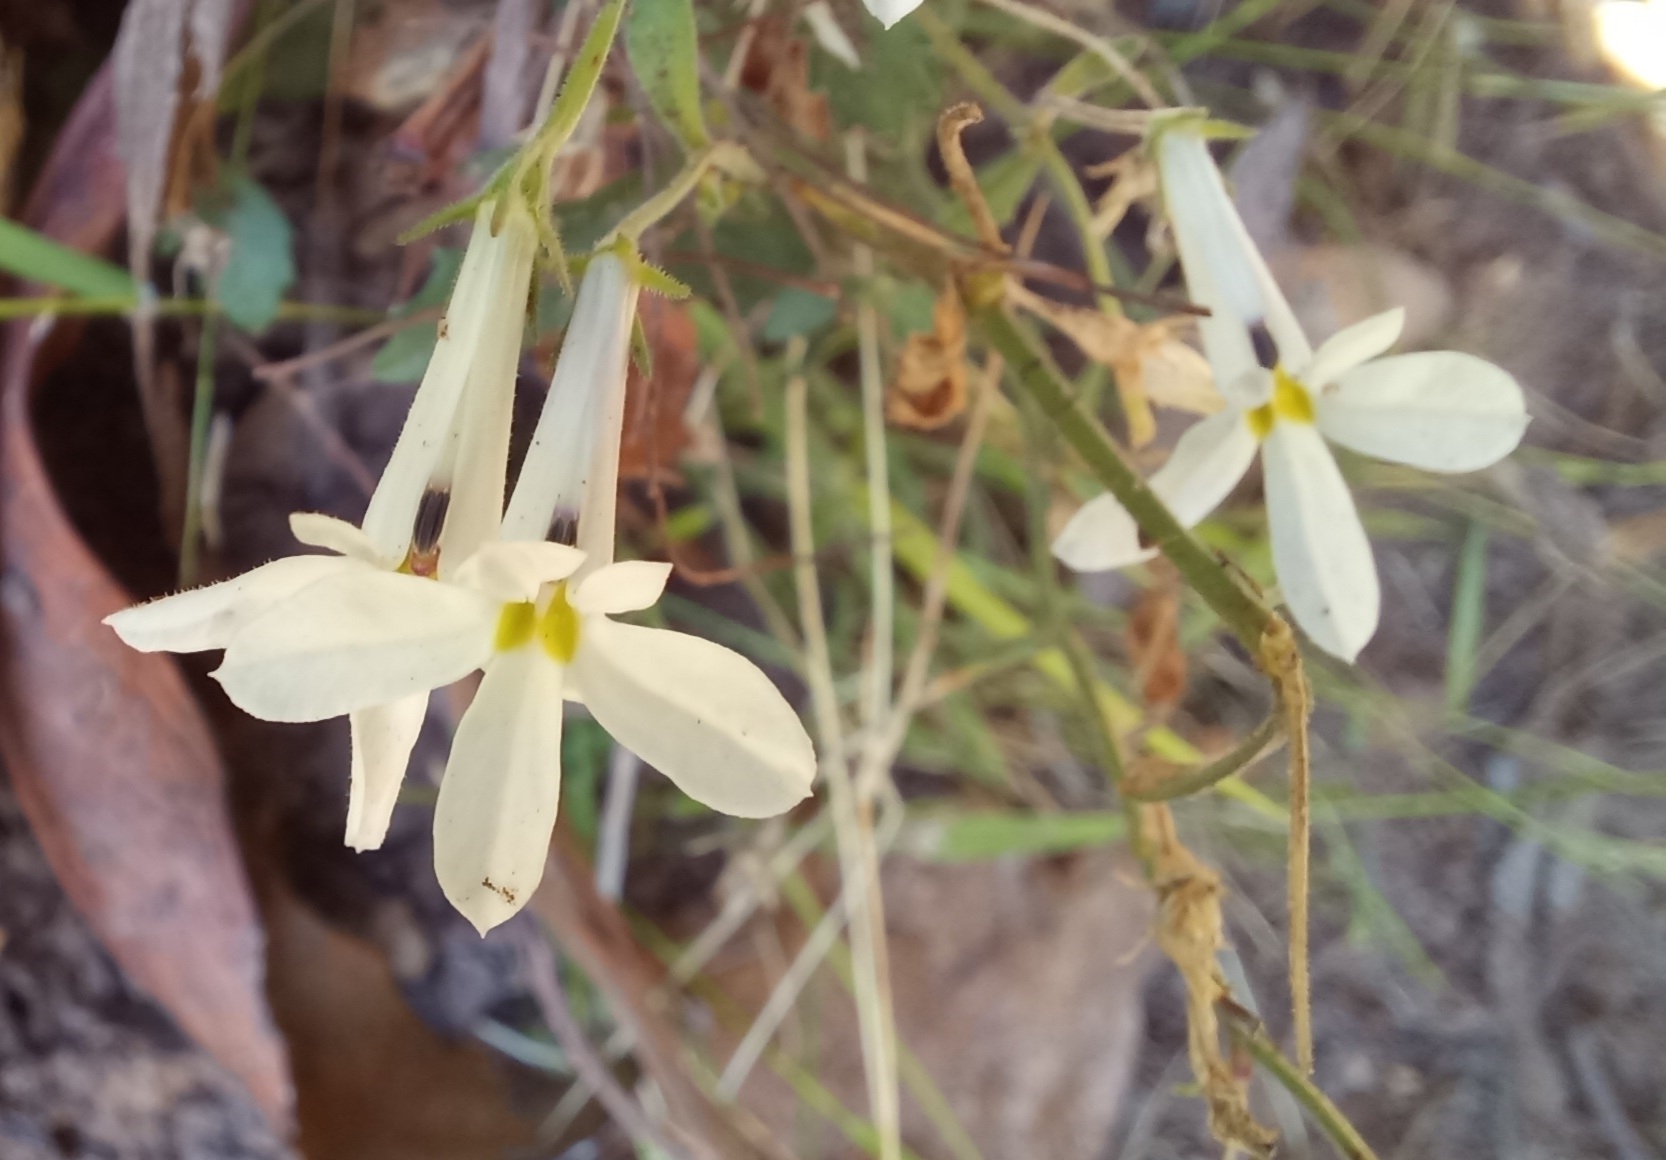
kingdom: Plantae
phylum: Tracheophyta
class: Magnoliopsida
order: Asterales
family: Campanulaceae
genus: Lobelia
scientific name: Lobelia pubescens
